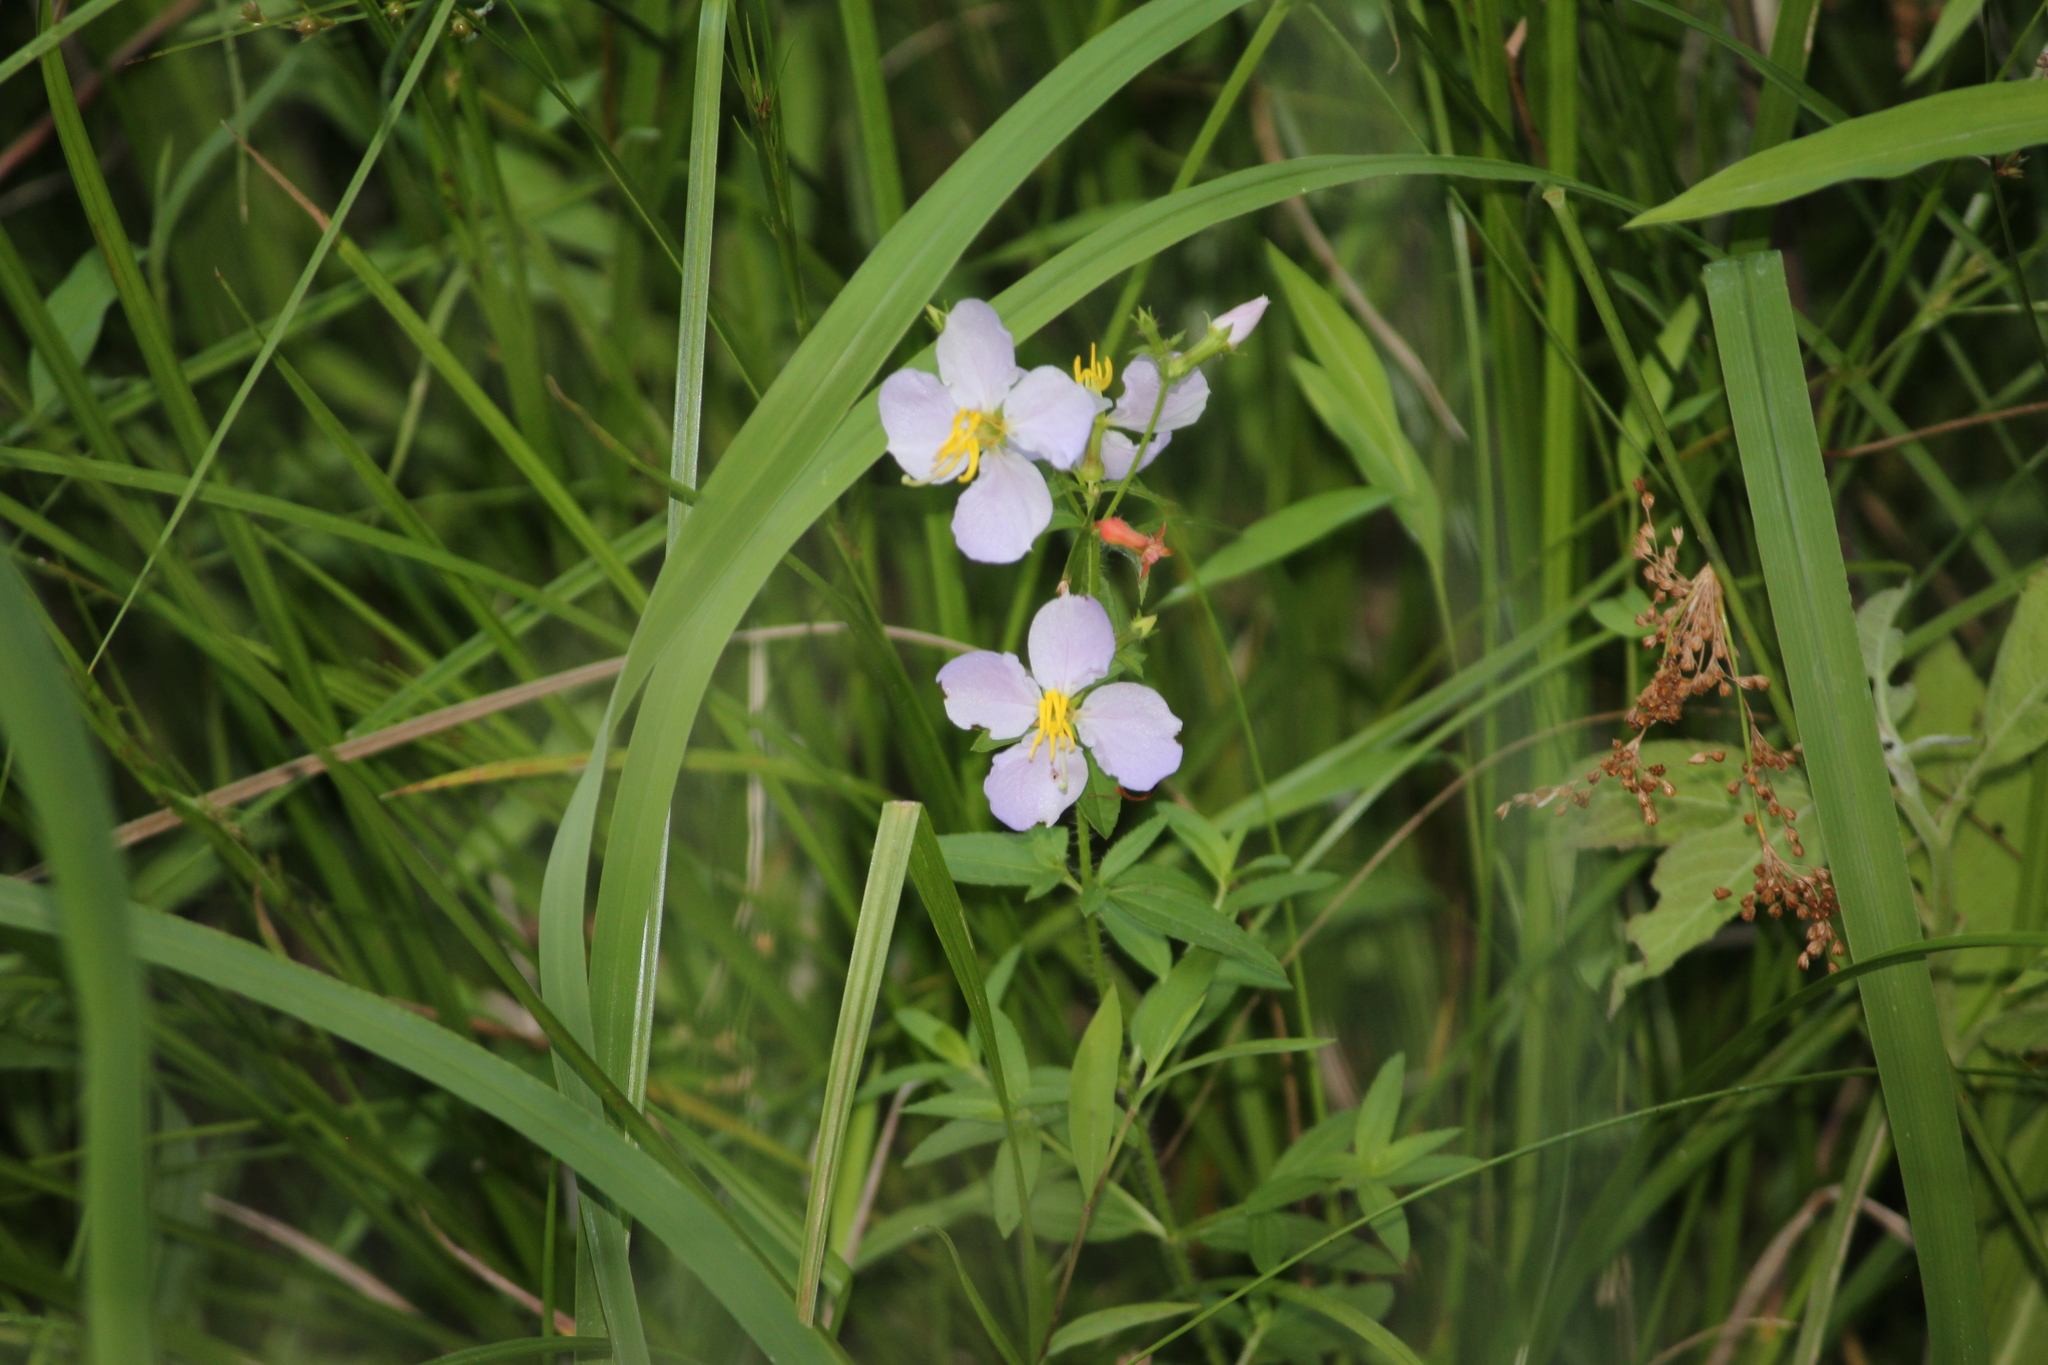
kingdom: Plantae
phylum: Tracheophyta
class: Magnoliopsida
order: Myrtales
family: Melastomataceae
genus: Rhexia
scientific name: Rhexia mariana
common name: Dull meadow-pitcher
